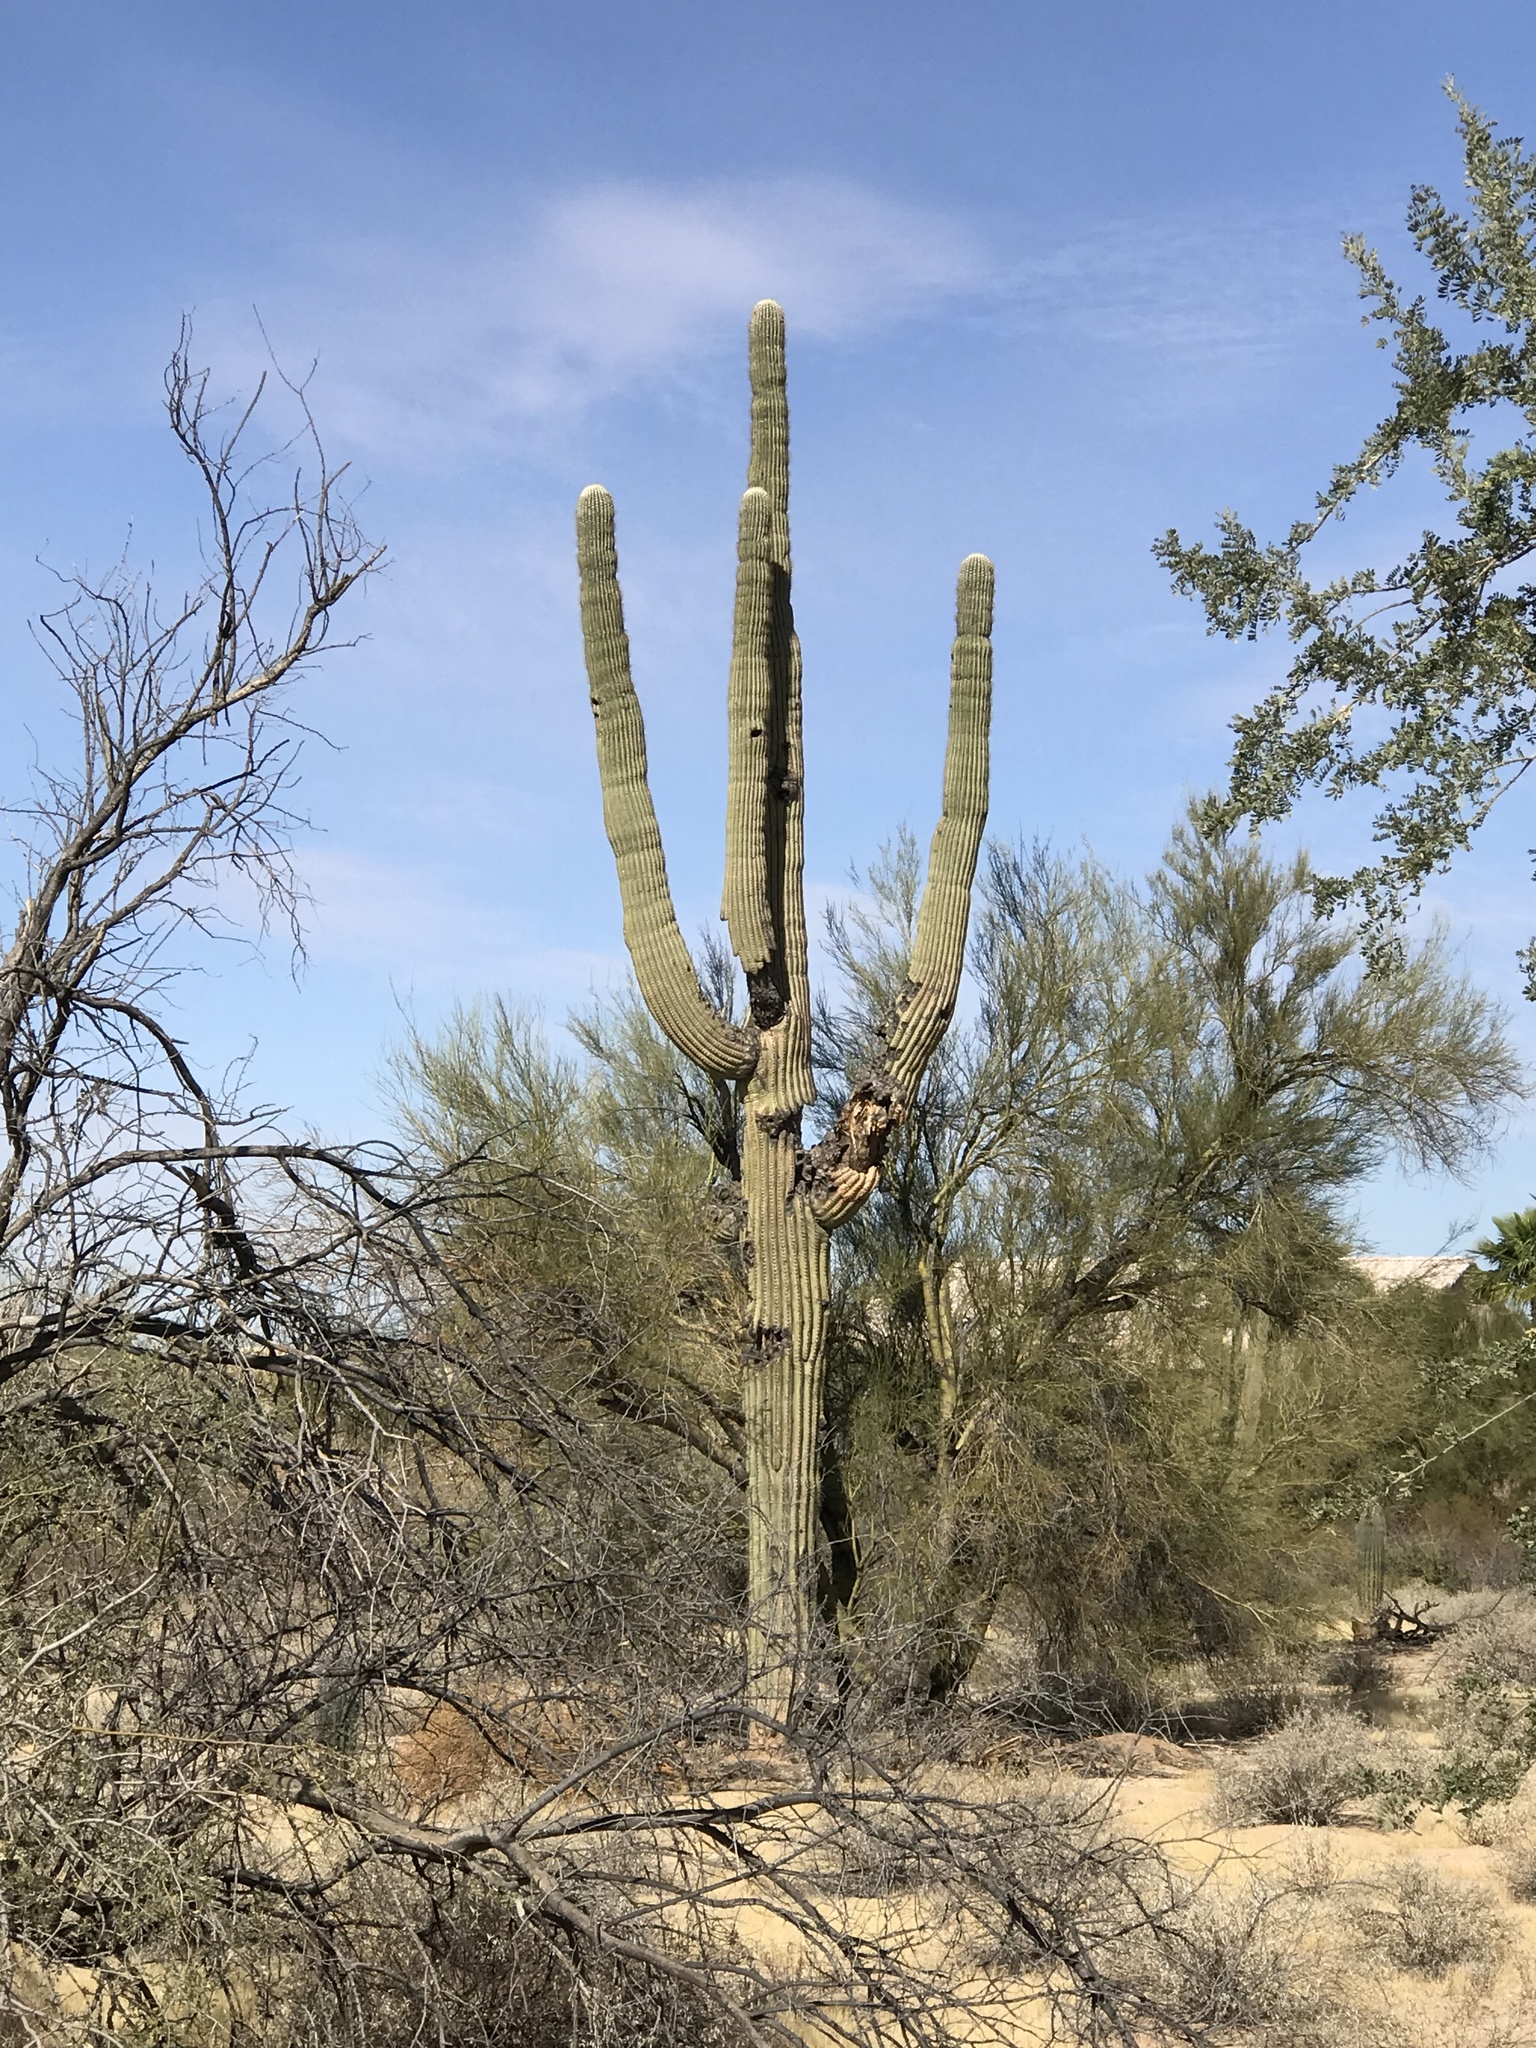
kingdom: Plantae
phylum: Tracheophyta
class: Magnoliopsida
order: Caryophyllales
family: Cactaceae
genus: Carnegiea
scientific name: Carnegiea gigantea
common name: Saguaro
